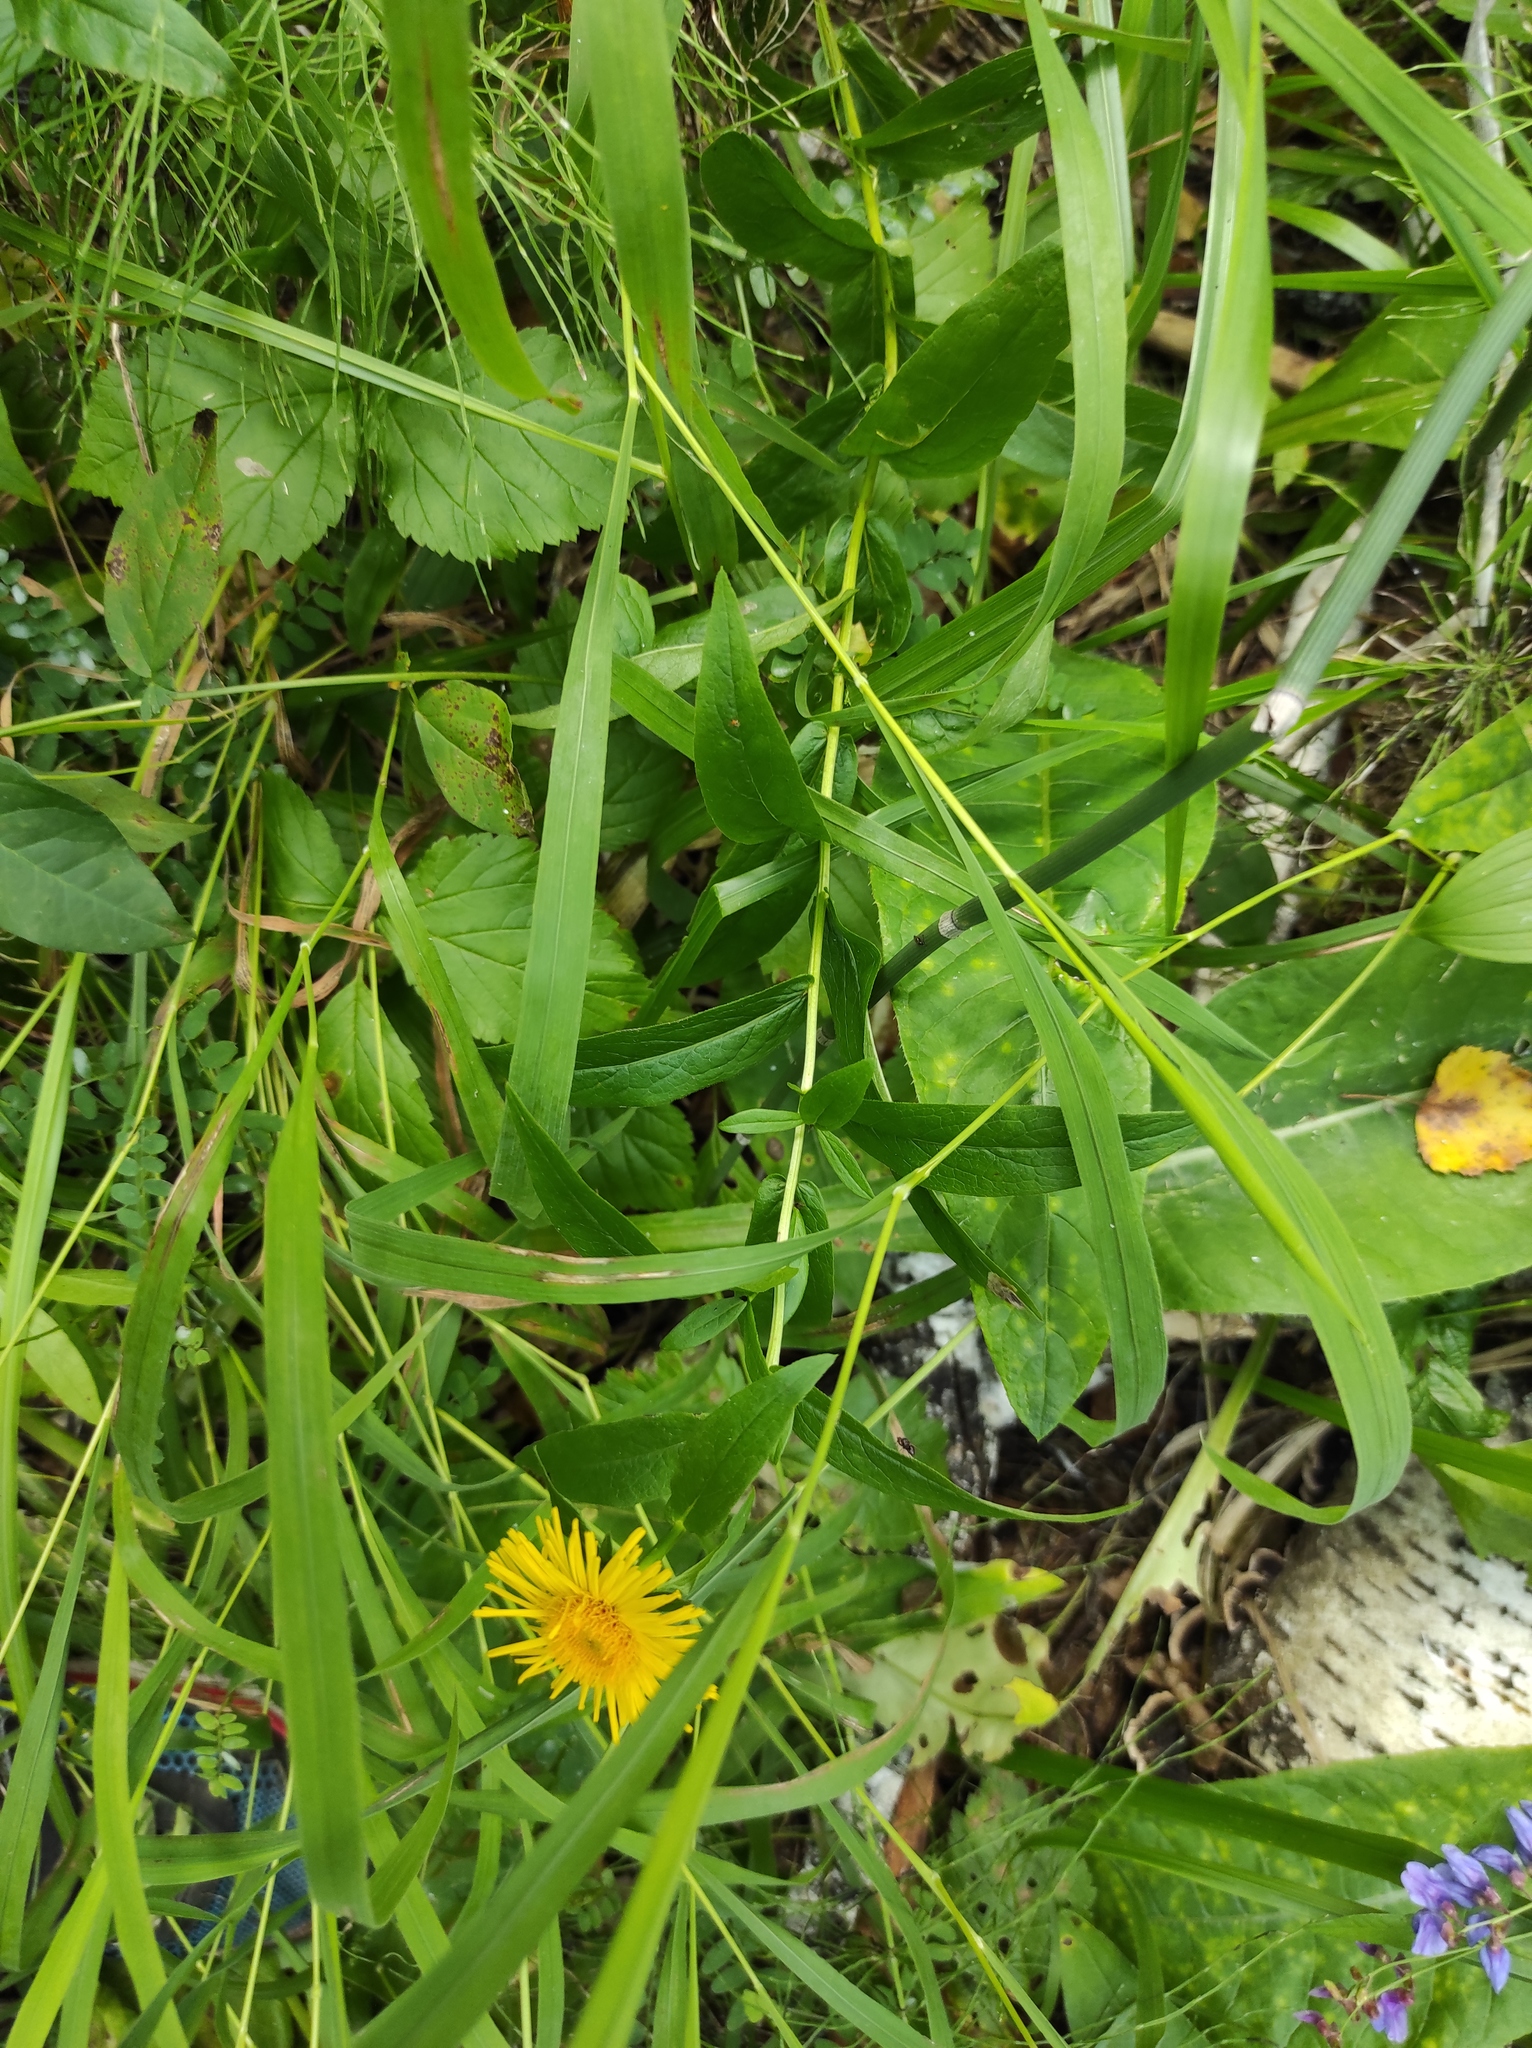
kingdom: Plantae
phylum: Tracheophyta
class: Magnoliopsida
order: Asterales
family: Asteraceae
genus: Pentanema
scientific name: Pentanema salicinum
